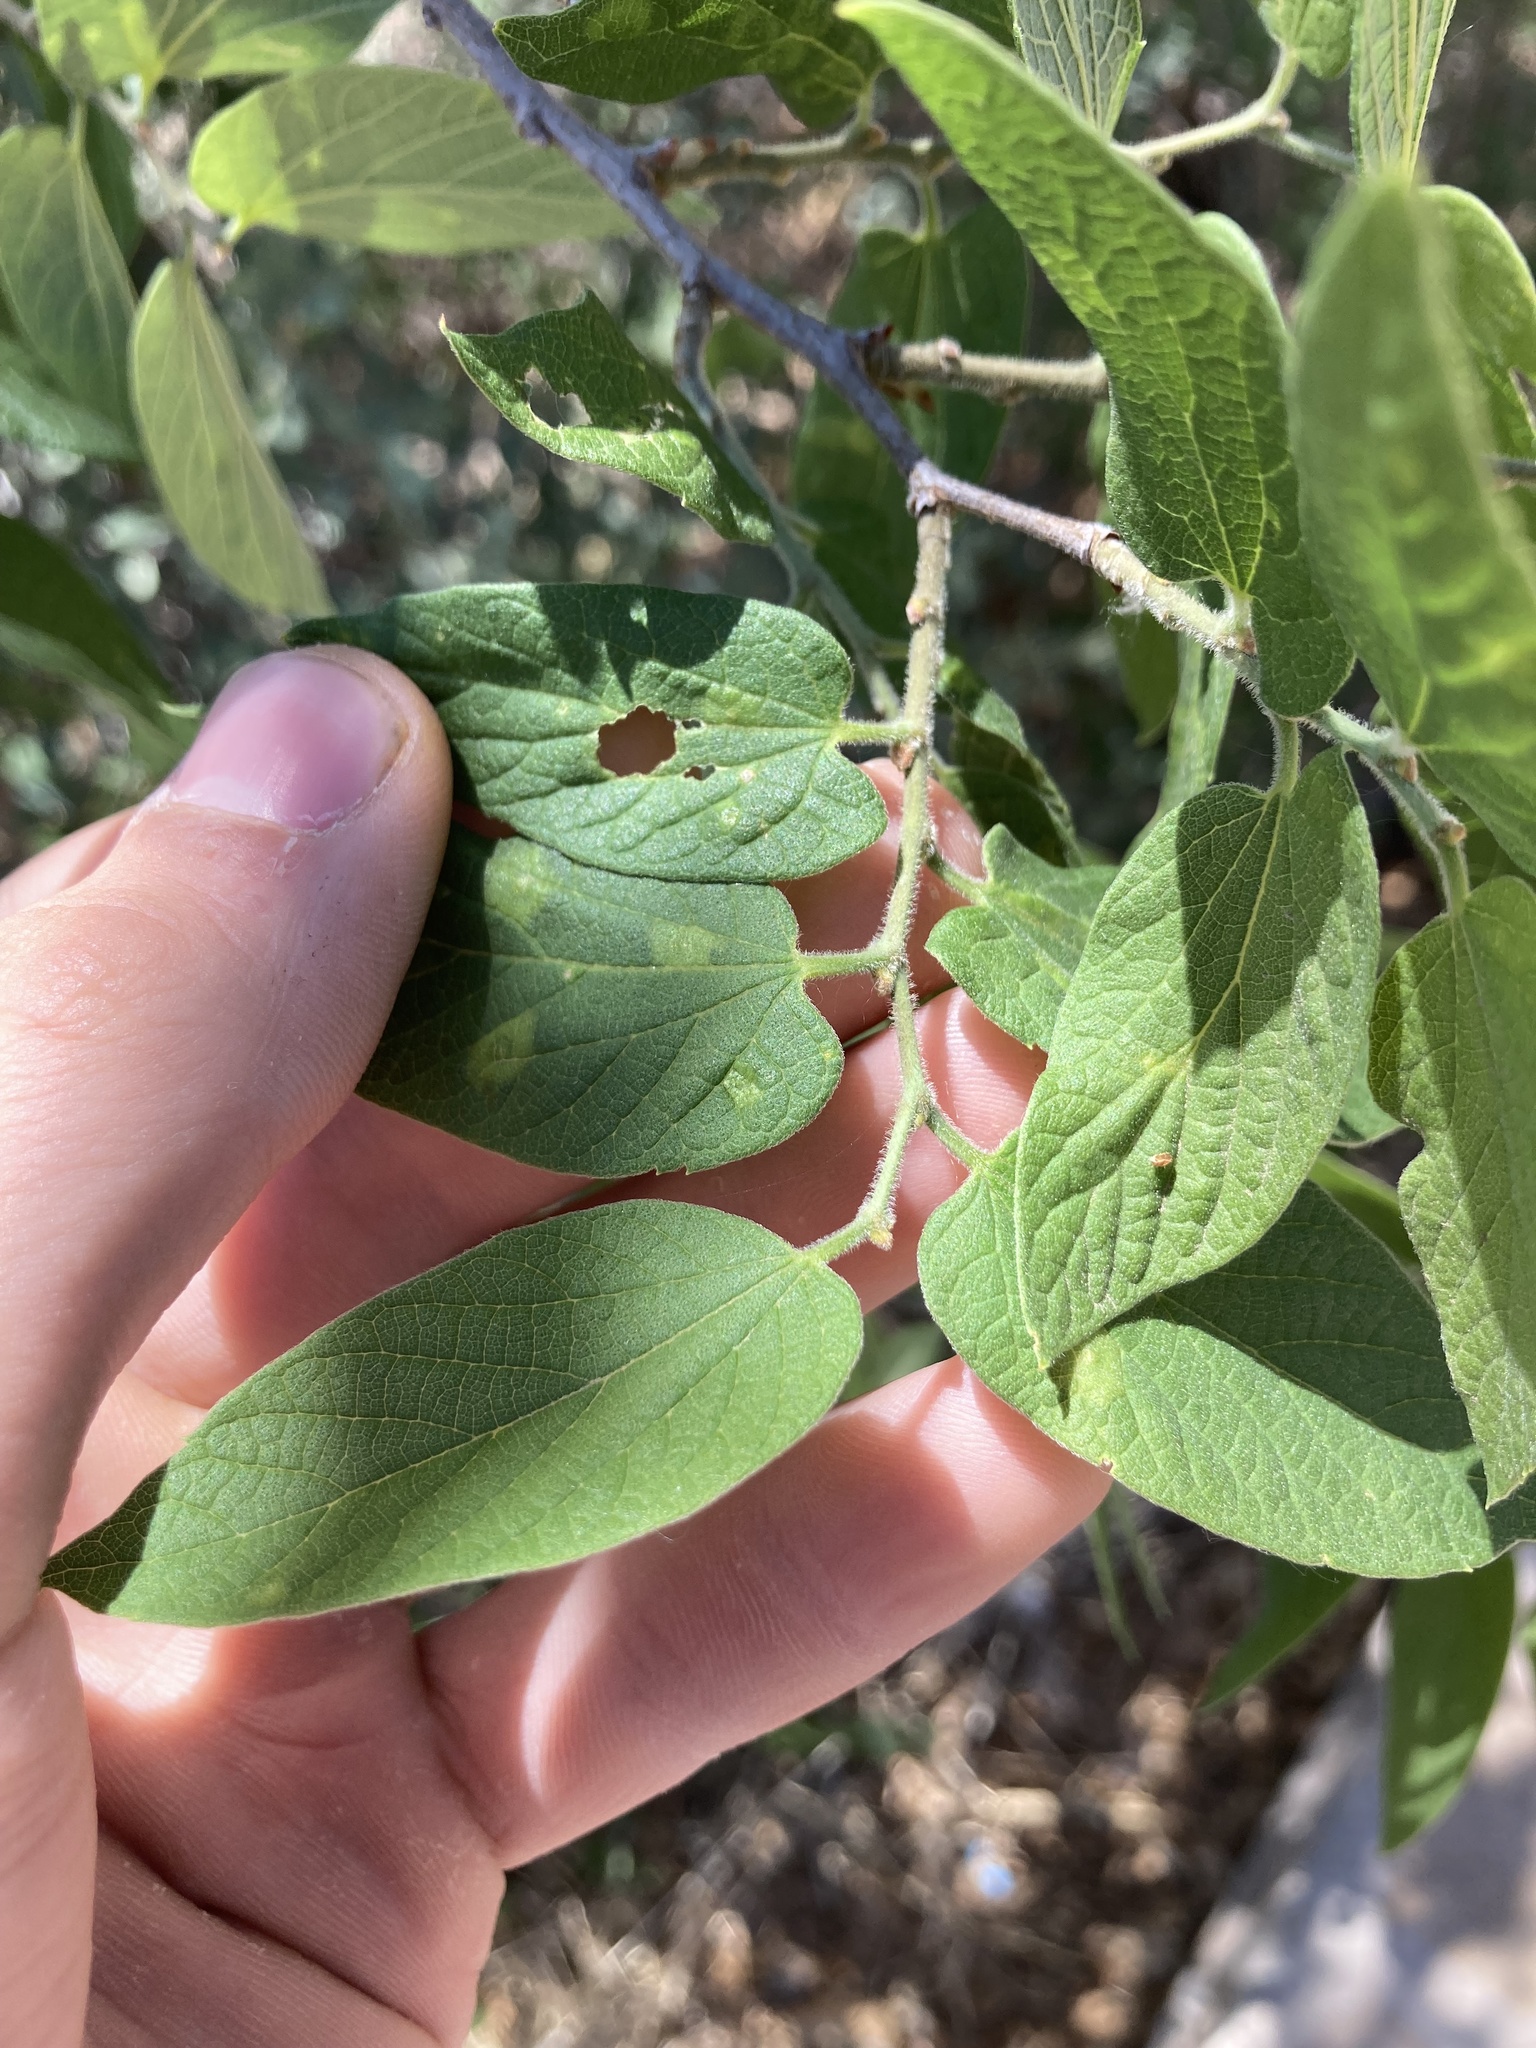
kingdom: Plantae
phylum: Tracheophyta
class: Magnoliopsida
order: Rosales
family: Cannabaceae
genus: Celtis
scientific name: Celtis reticulata
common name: Netleaf hackberry
